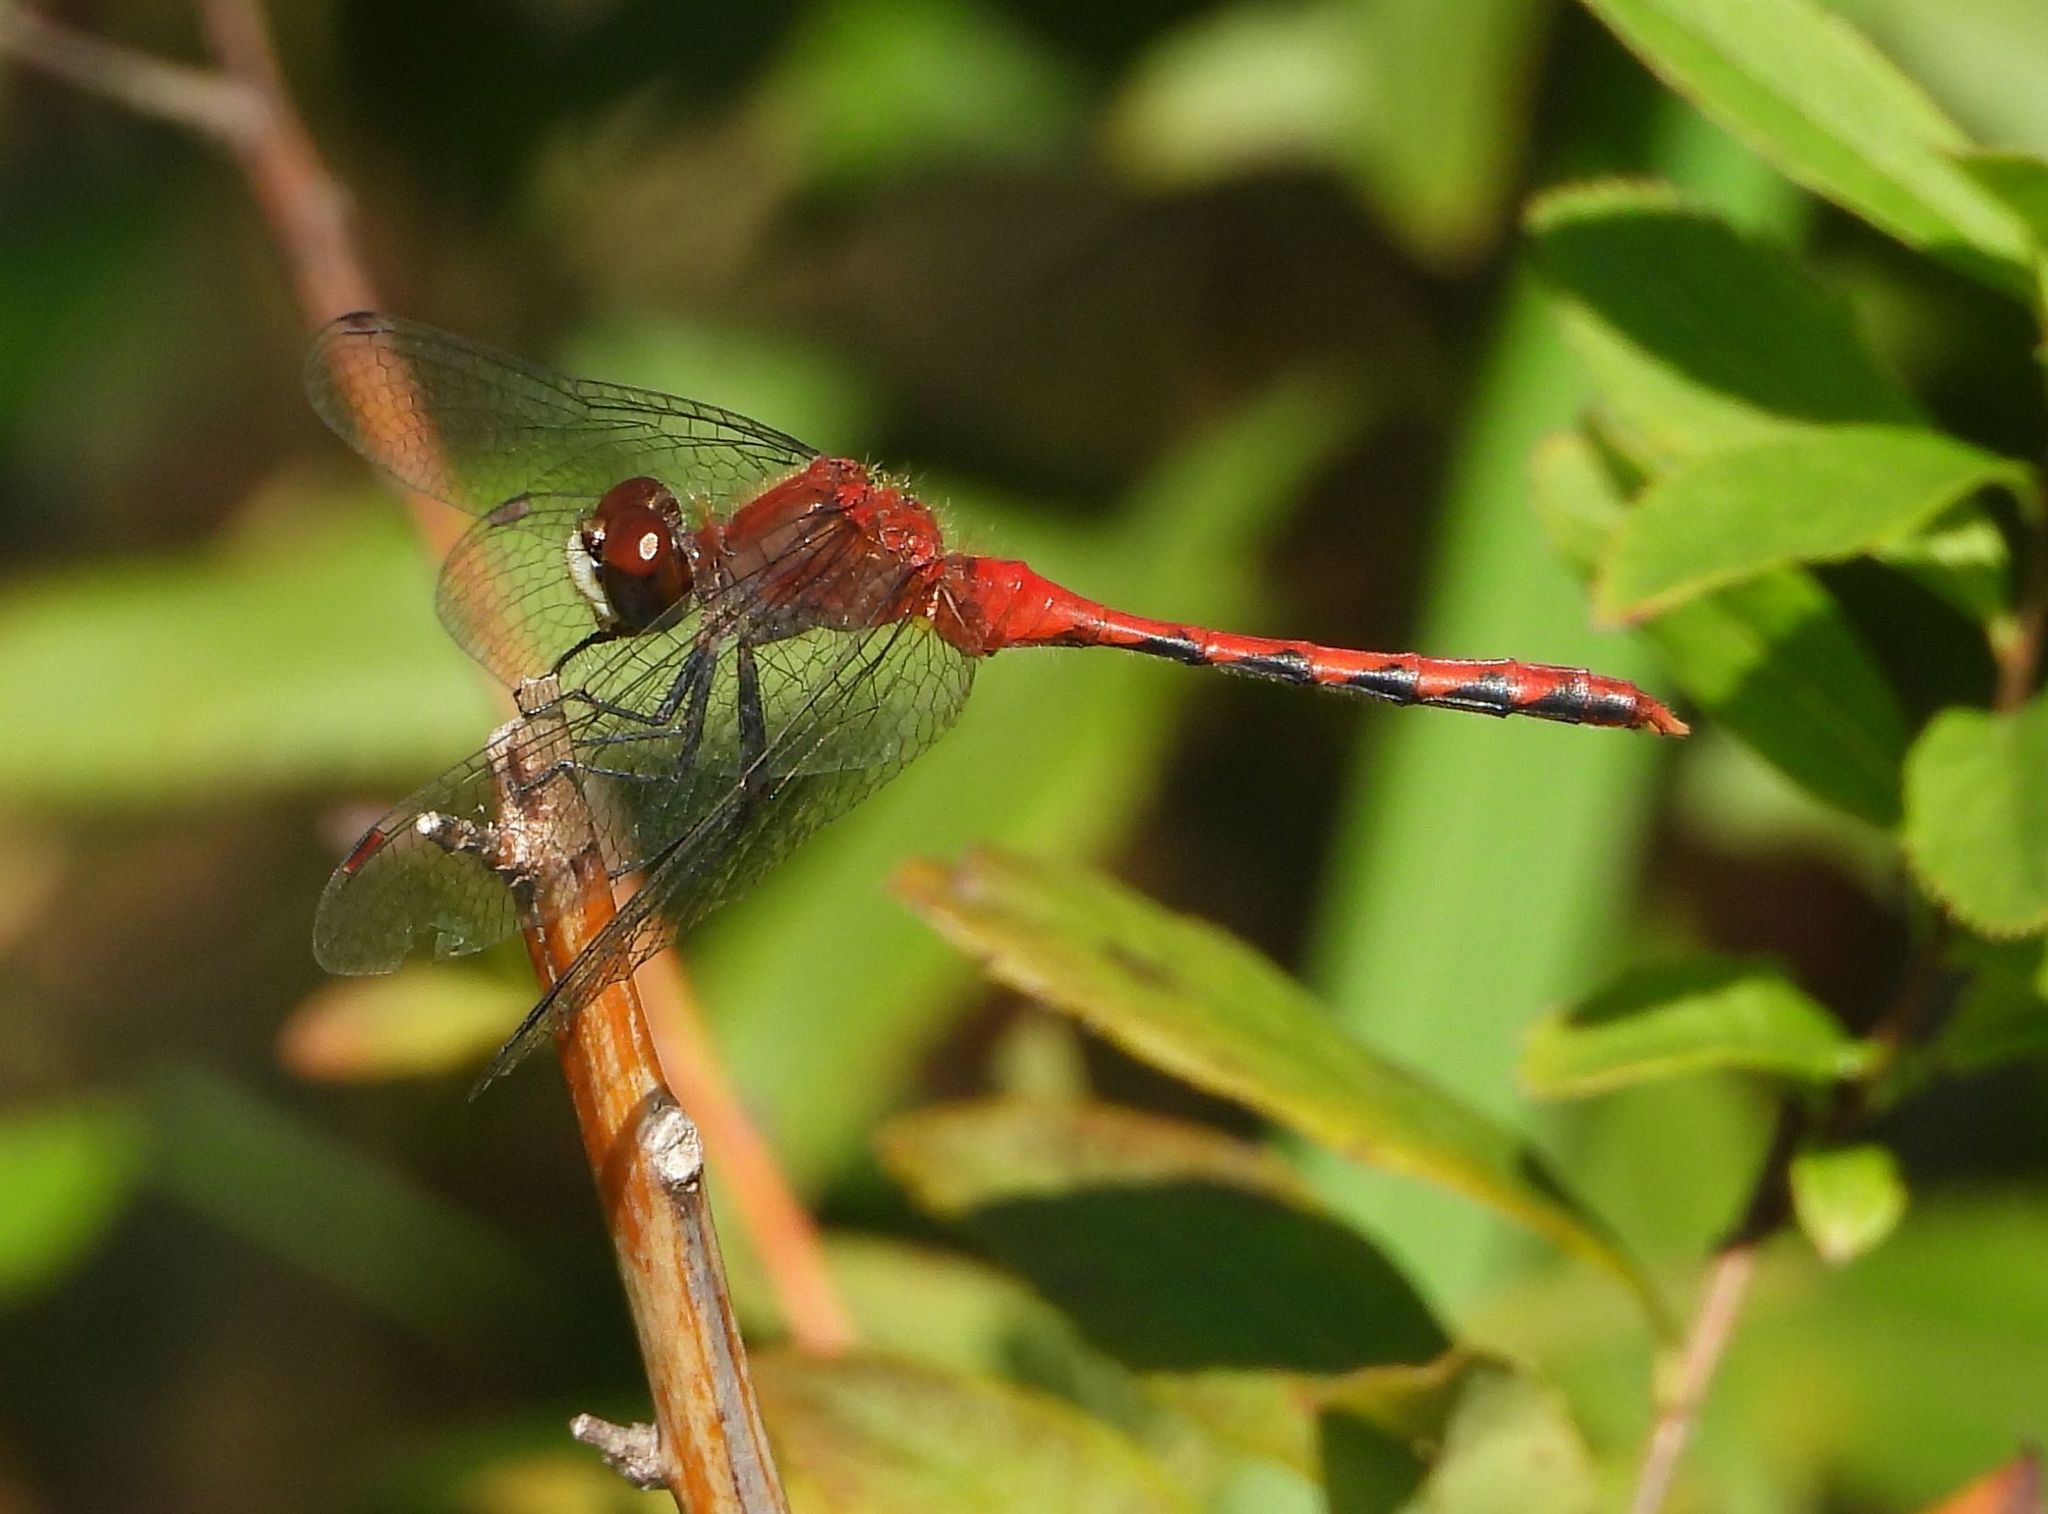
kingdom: Animalia
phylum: Arthropoda
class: Insecta
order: Odonata
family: Libellulidae
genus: Sympetrum
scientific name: Sympetrum obtrusum
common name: White-faced meadowhawk
